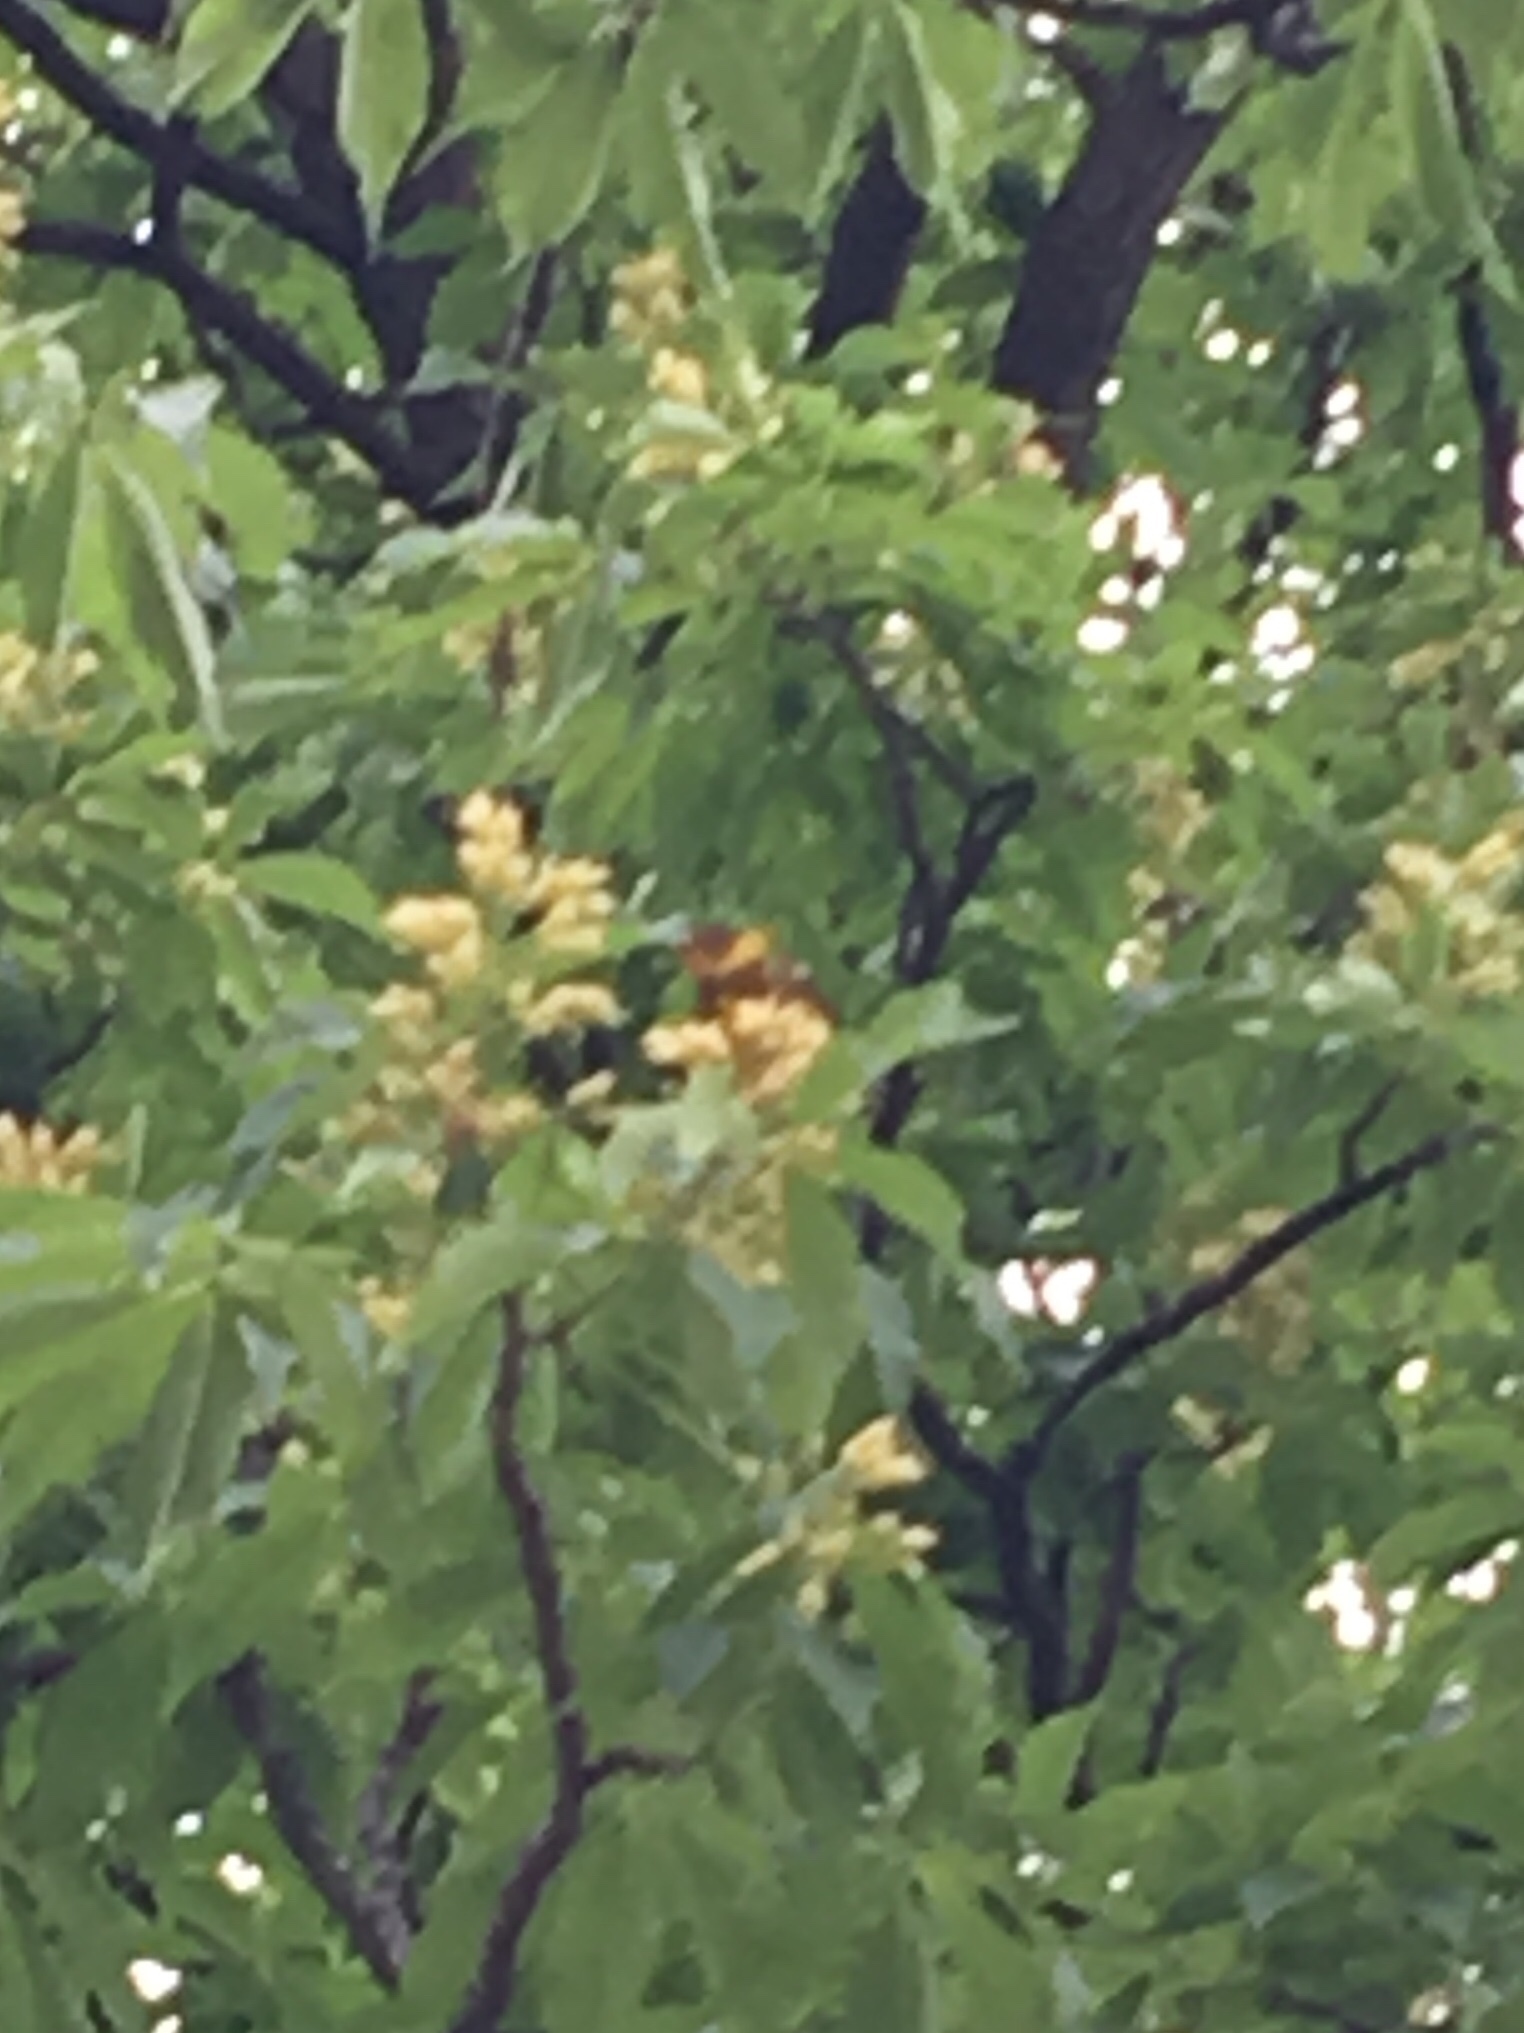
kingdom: Animalia
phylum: Chordata
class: Aves
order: Passeriformes
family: Parulidae
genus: Setophaga
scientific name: Setophaga tigrina
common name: Cape may warbler
